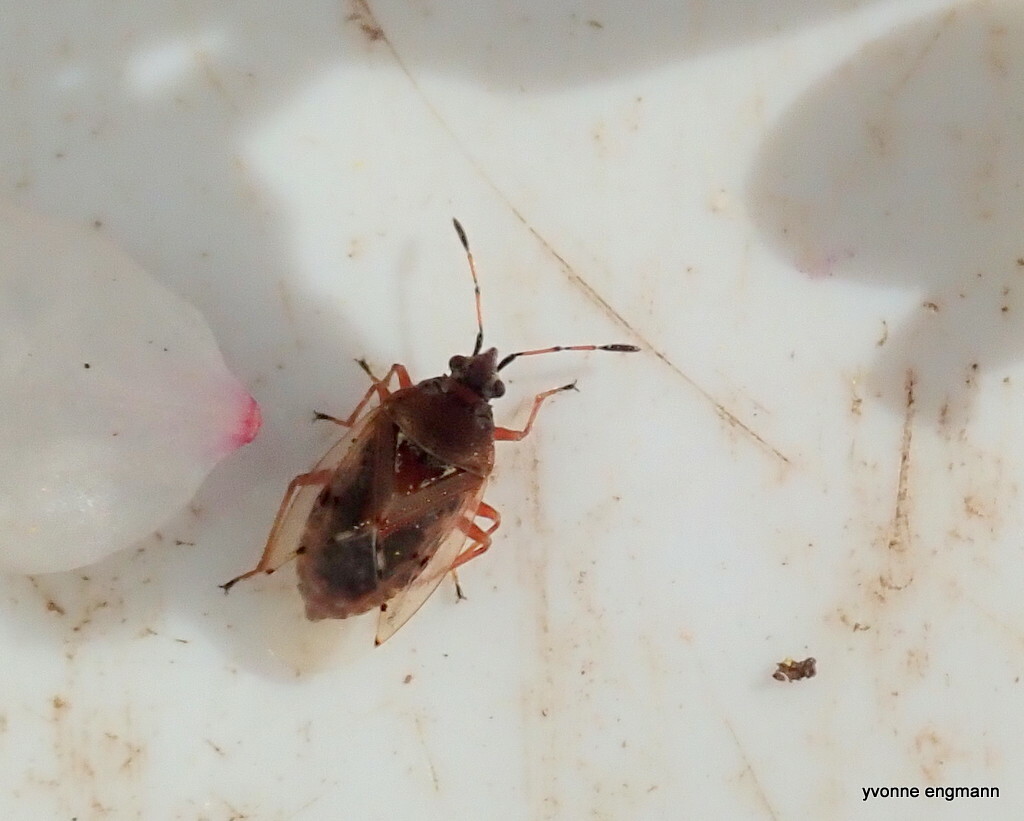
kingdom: Animalia
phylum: Arthropoda
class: Insecta
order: Hemiptera
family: Lygaeidae
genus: Kleidocerys
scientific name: Kleidocerys resedae
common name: Birch catkin bug
